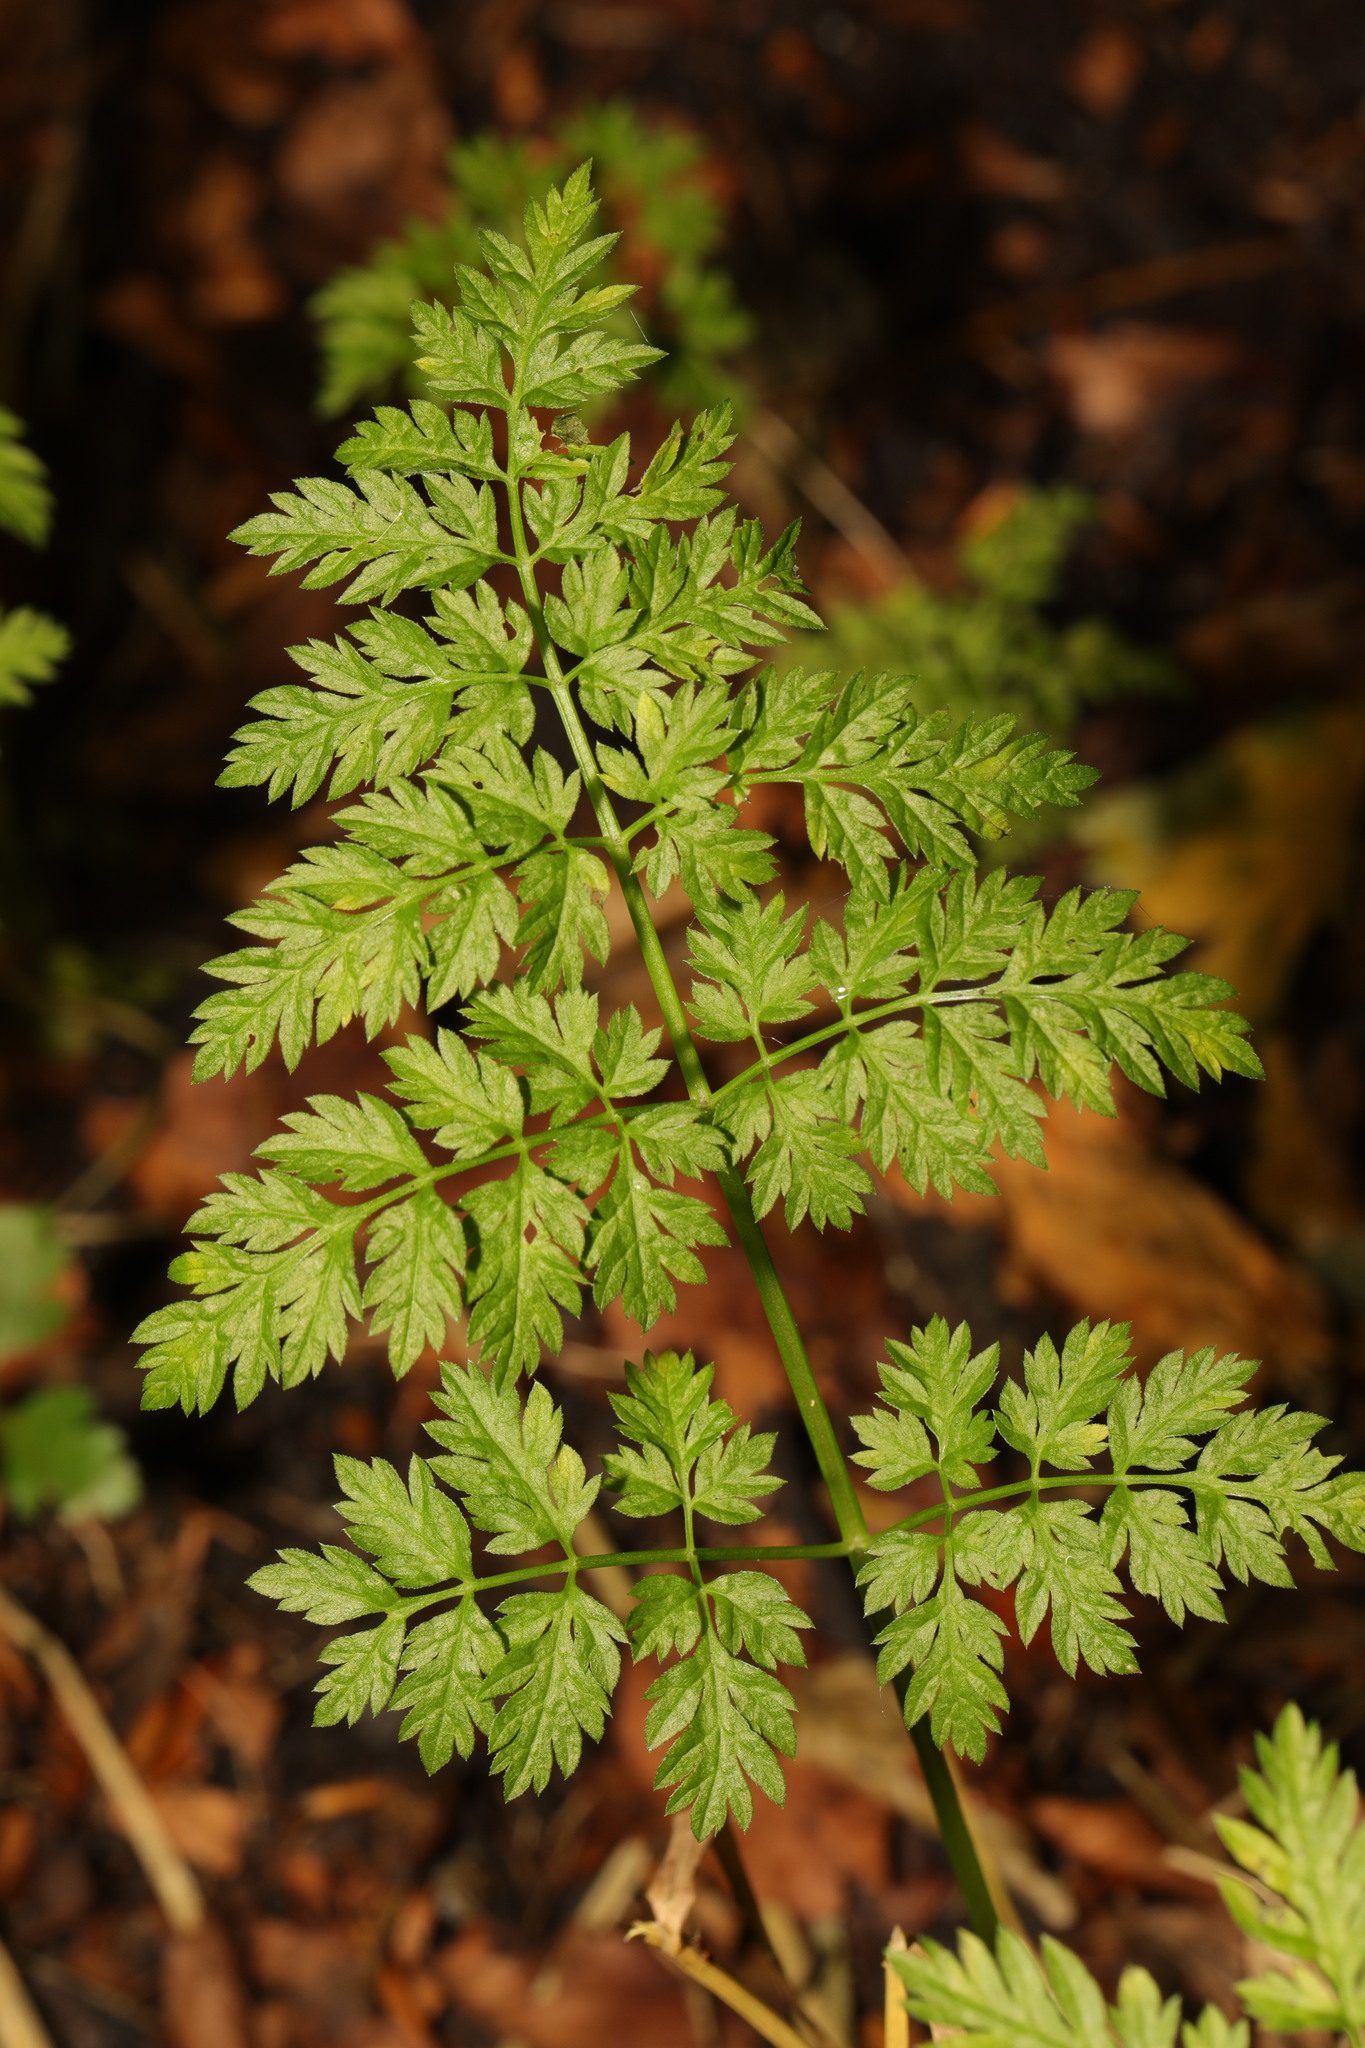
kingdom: Plantae
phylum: Tracheophyta
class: Magnoliopsida
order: Apiales
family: Apiaceae
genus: Anthriscus
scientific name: Anthriscus sylvestris
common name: Cow parsley
